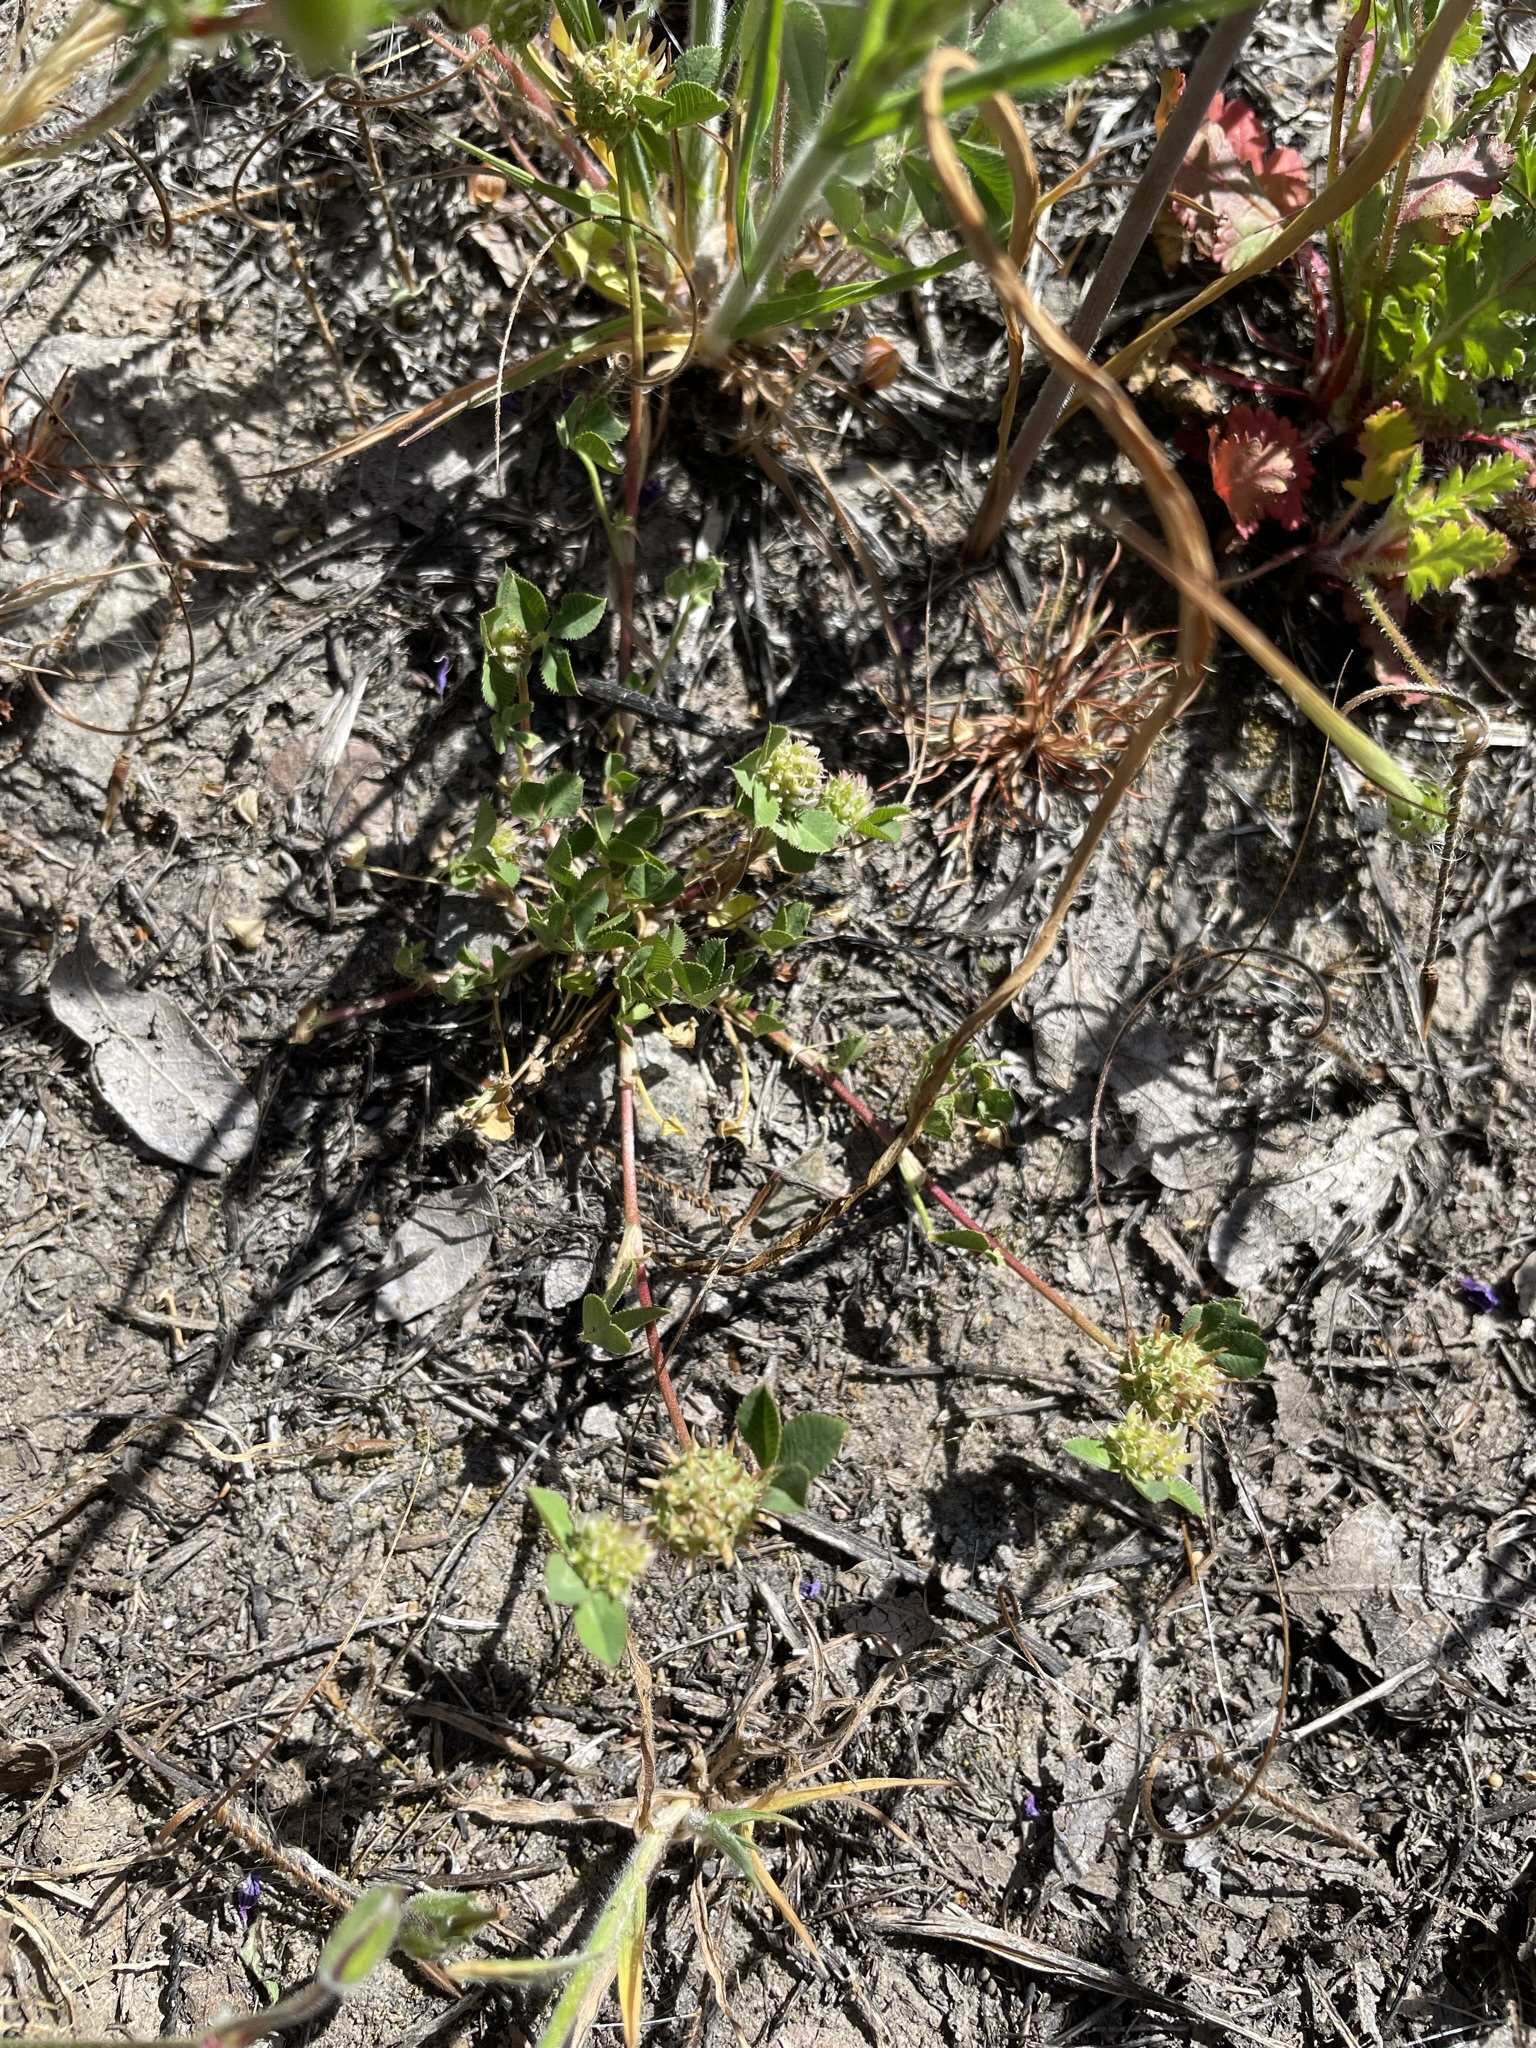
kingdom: Plantae
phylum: Tracheophyta
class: Magnoliopsida
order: Fabales
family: Fabaceae
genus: Trifolium
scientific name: Trifolium glomeratum
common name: Clustered clover
